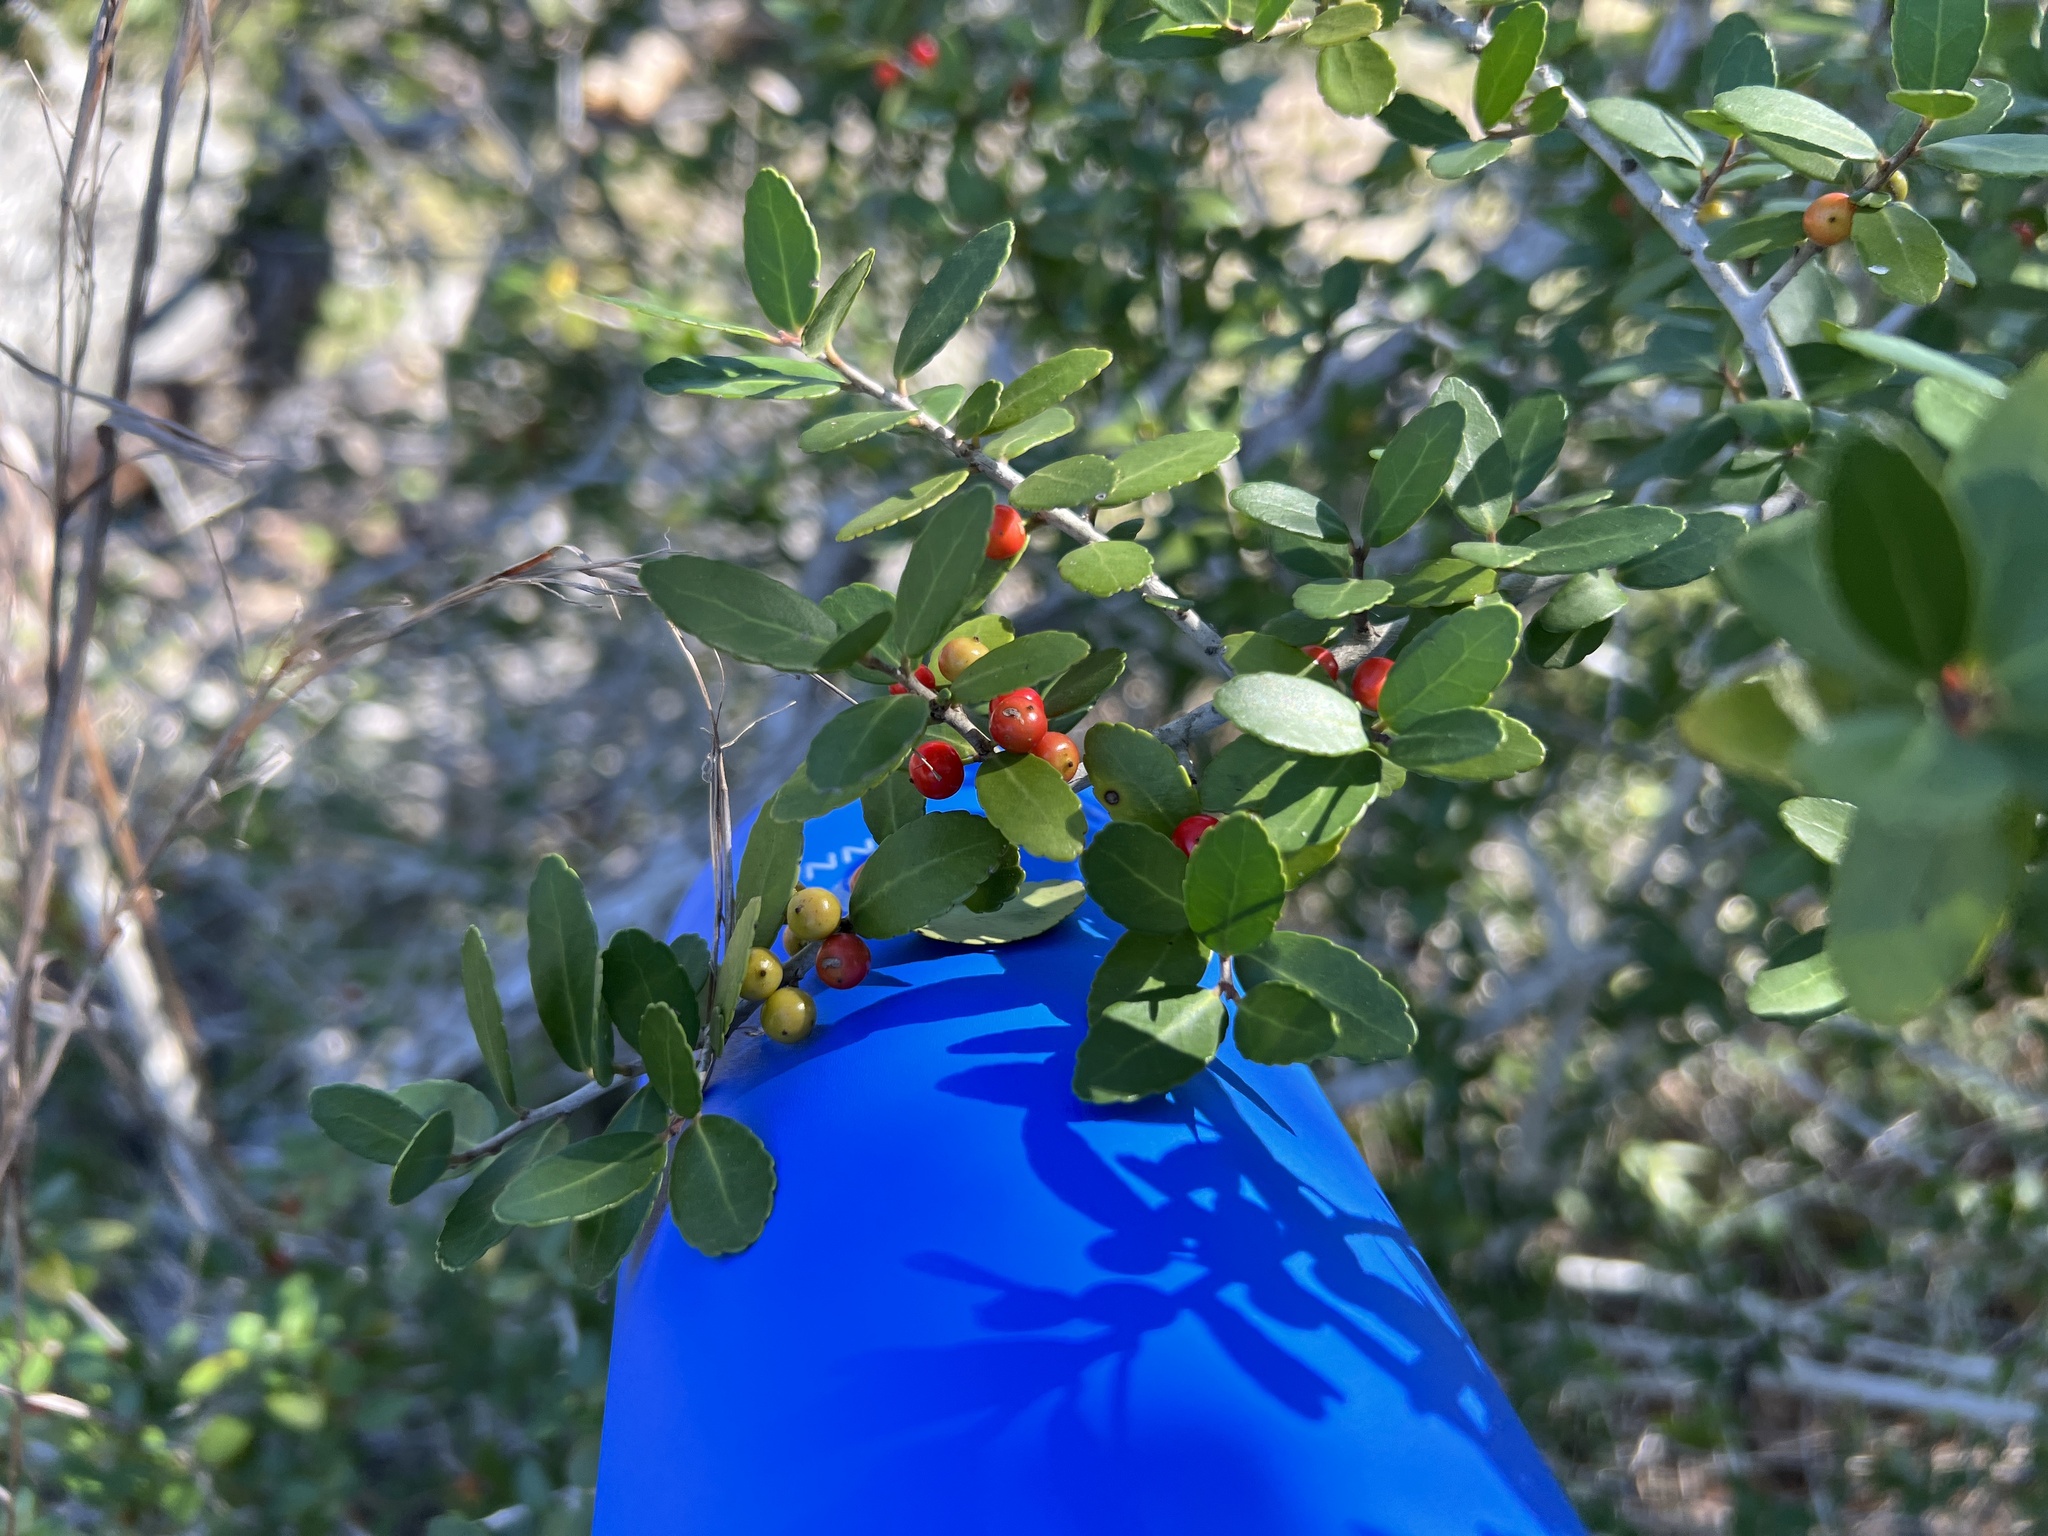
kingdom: Plantae
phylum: Tracheophyta
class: Magnoliopsida
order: Aquifoliales
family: Aquifoliaceae
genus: Ilex
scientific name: Ilex vomitoria
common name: Yaupon holly
